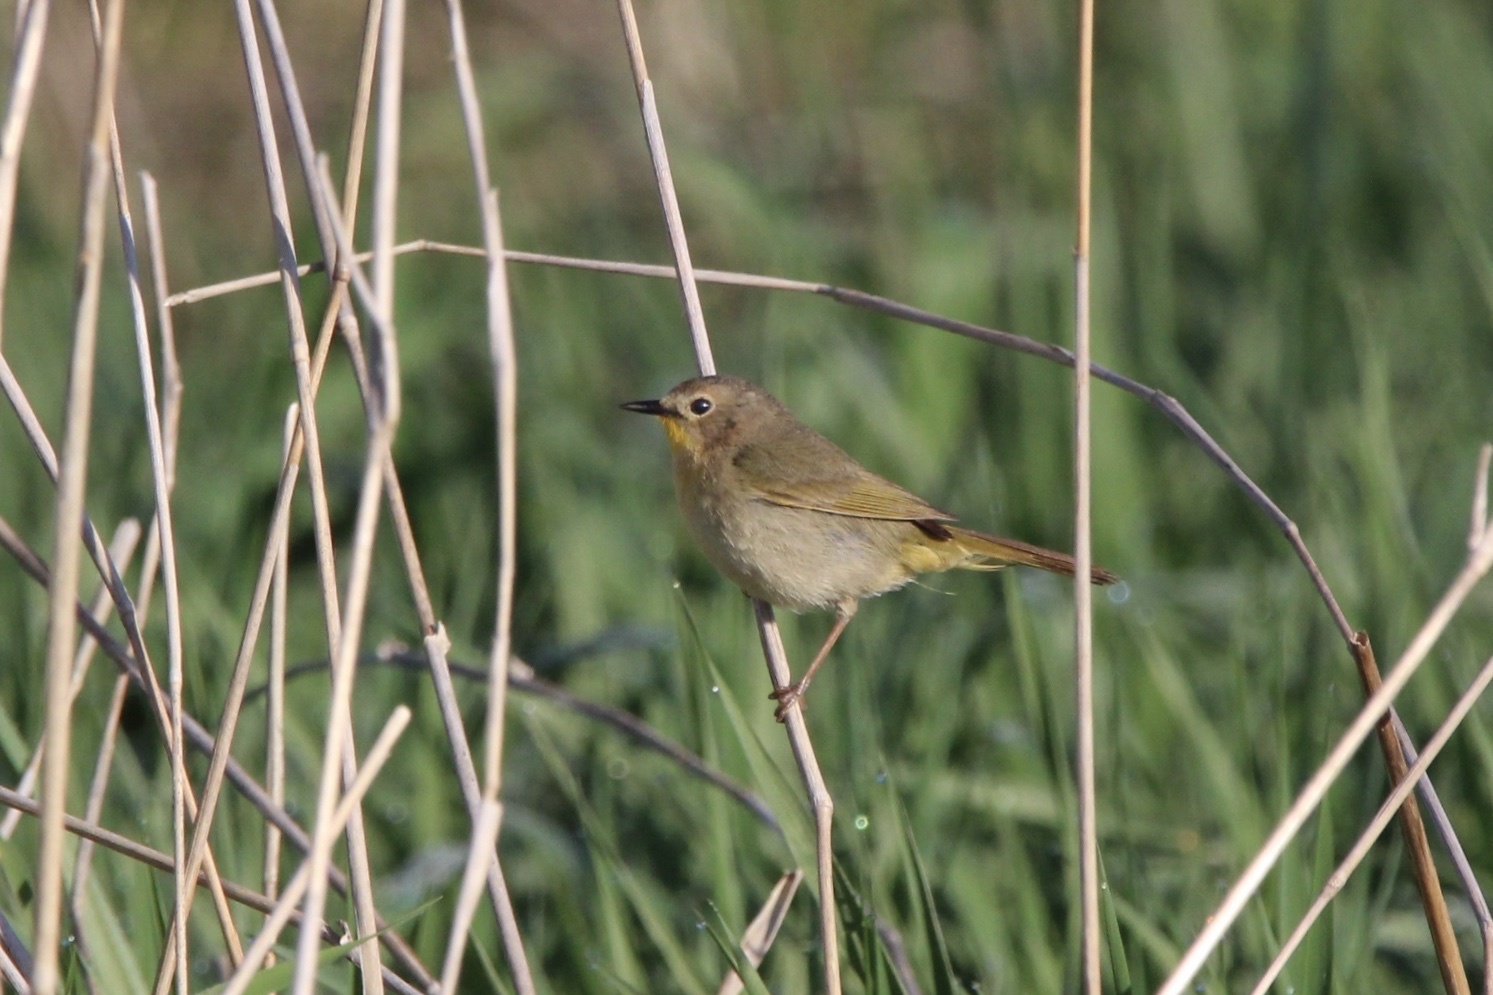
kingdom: Animalia
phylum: Chordata
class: Aves
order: Passeriformes
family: Parulidae
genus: Geothlypis
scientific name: Geothlypis trichas
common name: Common yellowthroat
